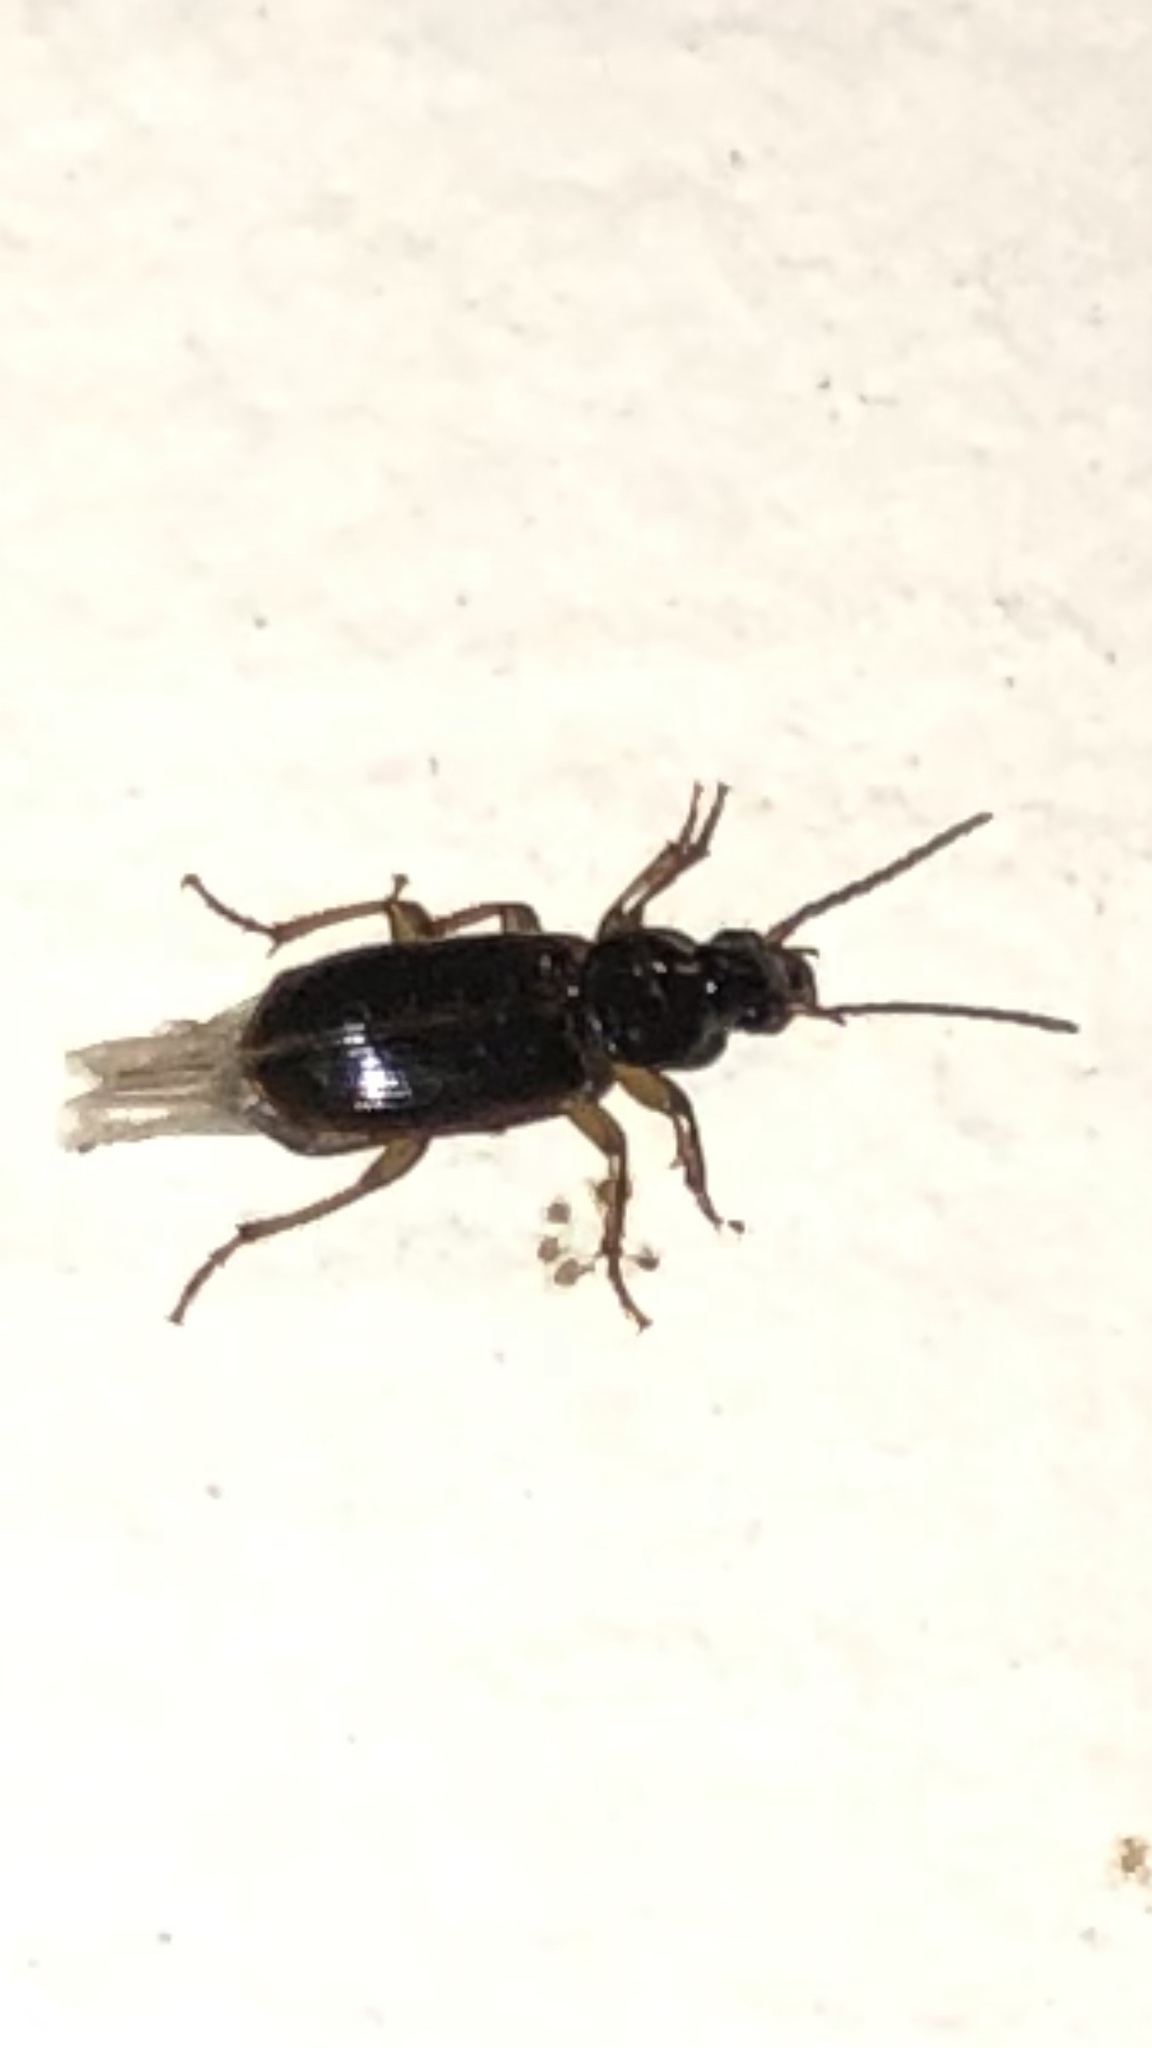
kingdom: Animalia
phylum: Arthropoda
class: Insecta
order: Coleoptera
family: Carabidae
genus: Stenolophus
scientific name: Stenolophus ochropezus
